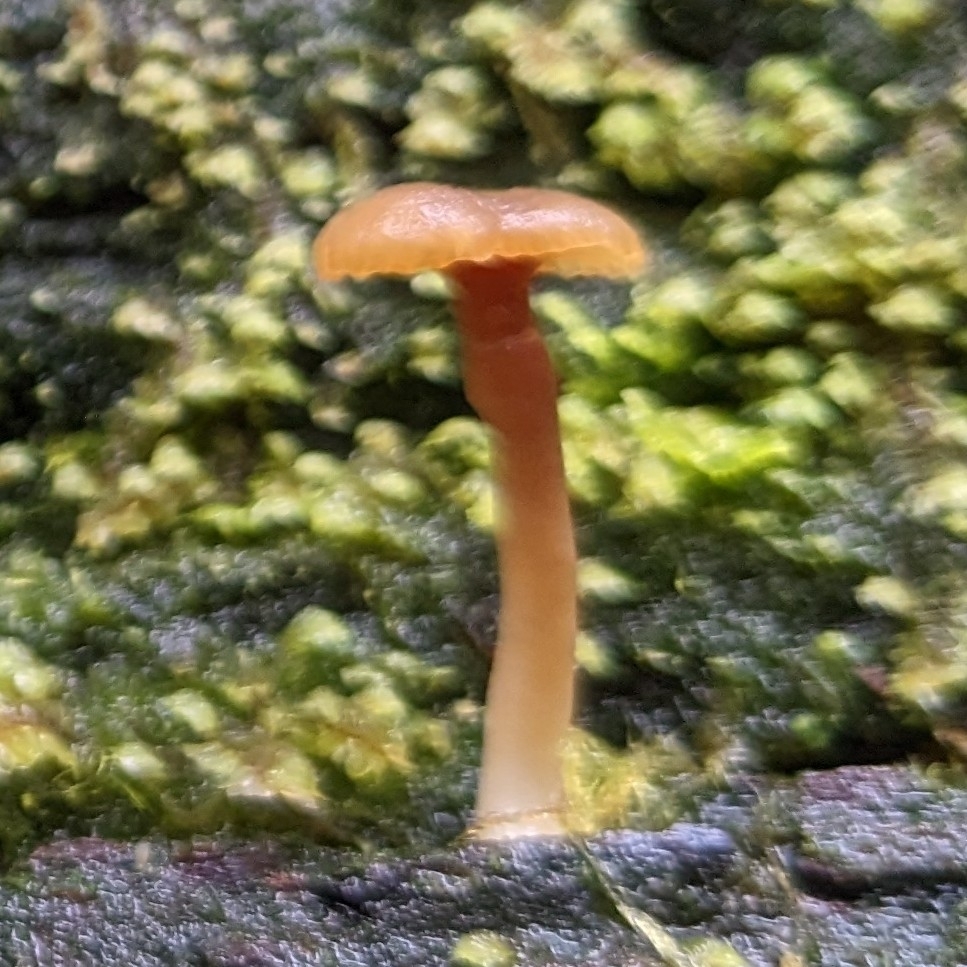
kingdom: Fungi
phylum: Basidiomycota
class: Agaricomycetes
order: Agaricales
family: Hygrophoraceae
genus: Lichenomphalia
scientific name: Lichenomphalia
